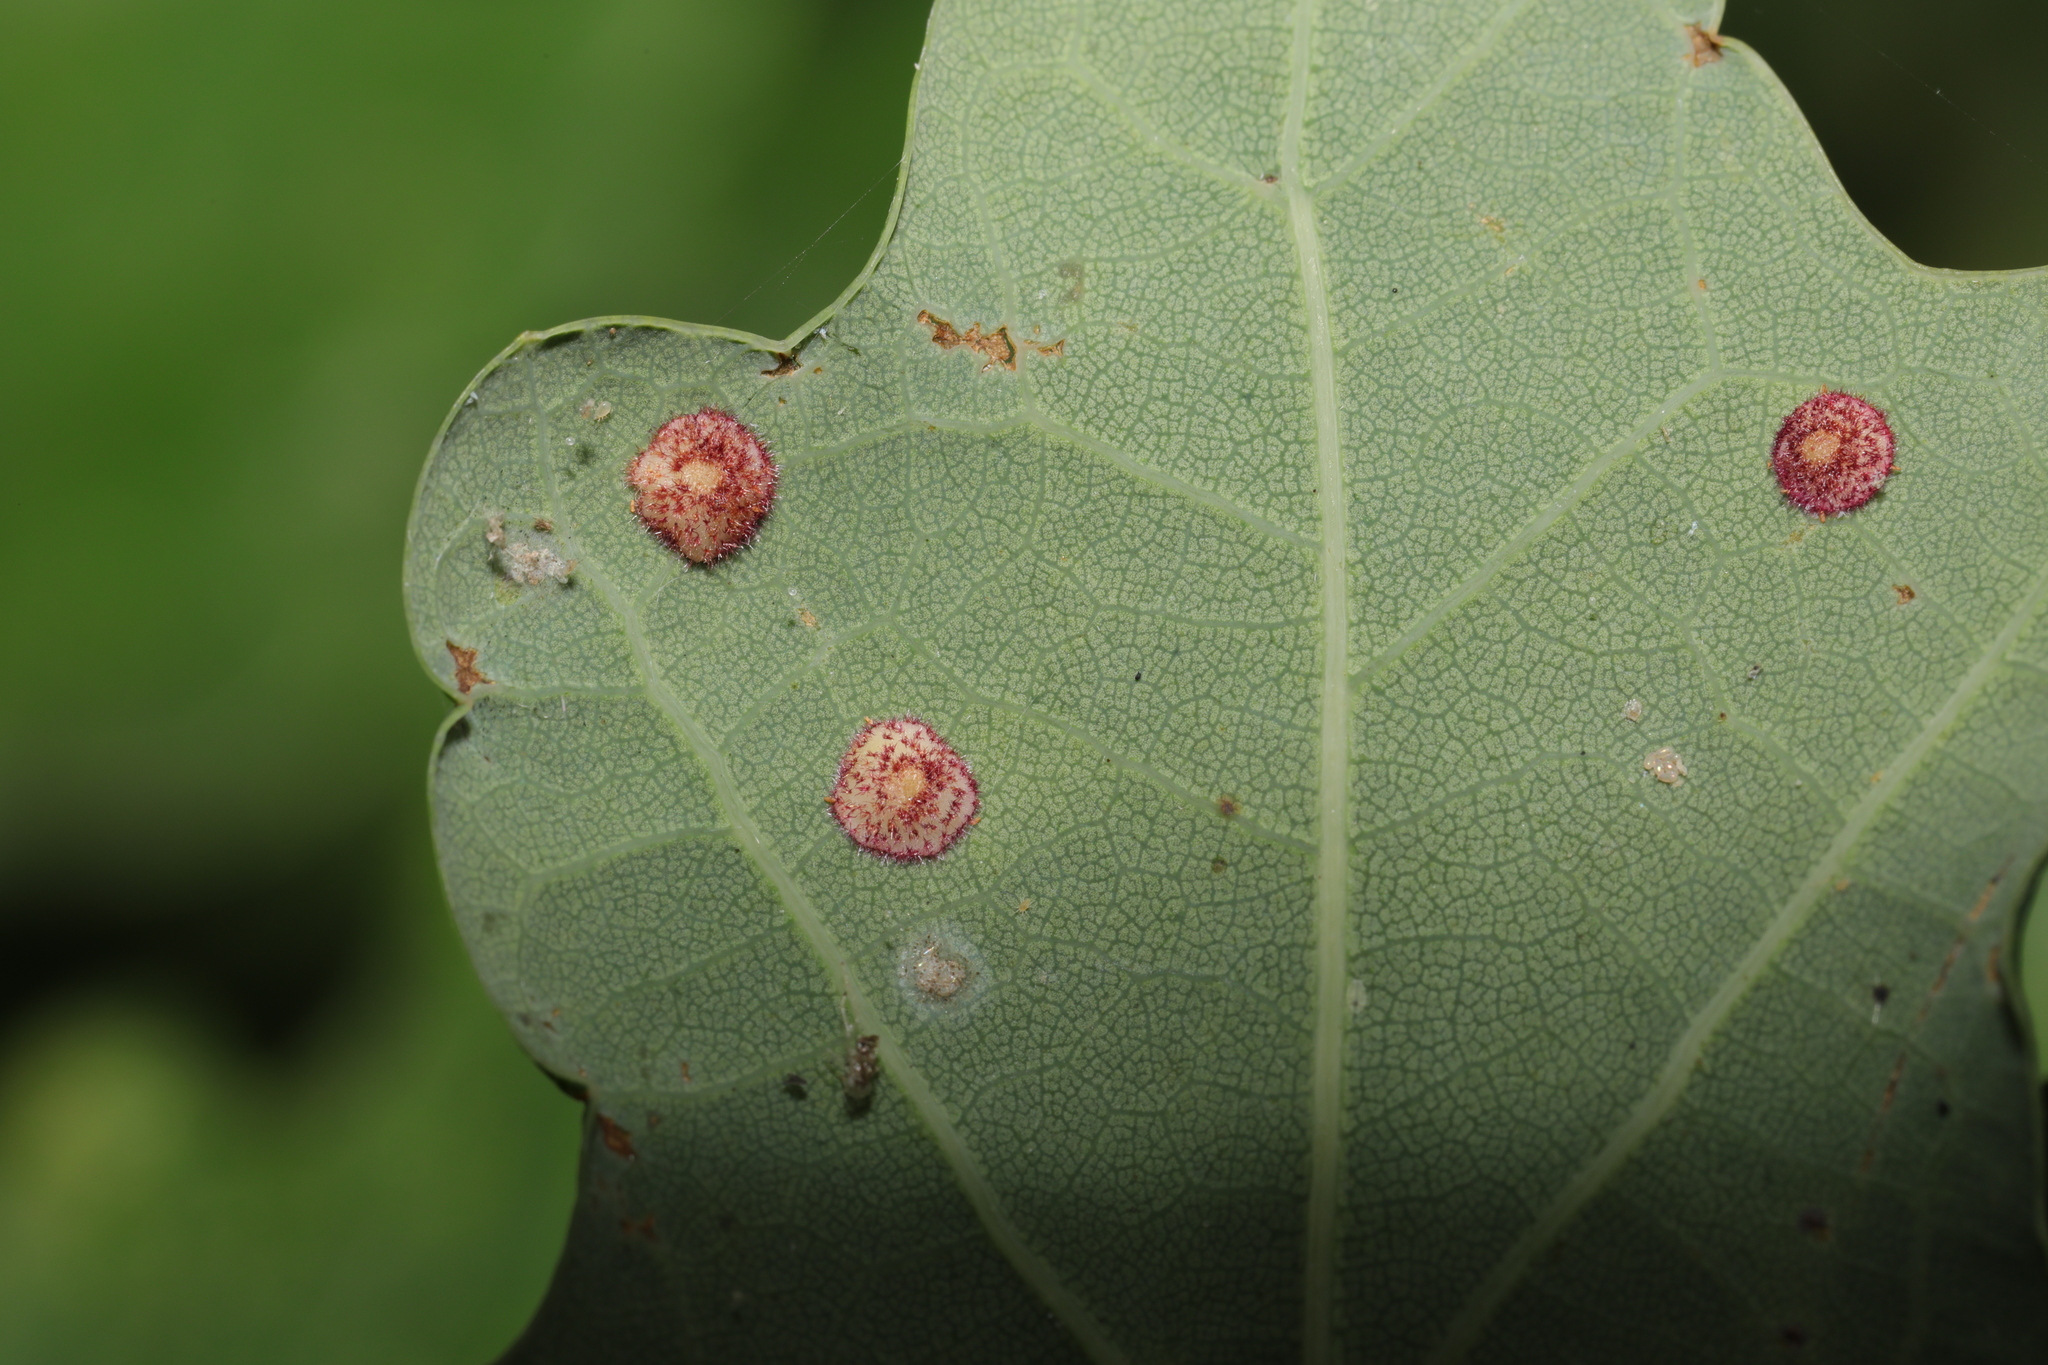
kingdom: Animalia
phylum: Arthropoda
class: Insecta
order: Hymenoptera
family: Cynipidae
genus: Neuroterus
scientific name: Neuroterus quercusbaccarum
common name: Common spangle gall
